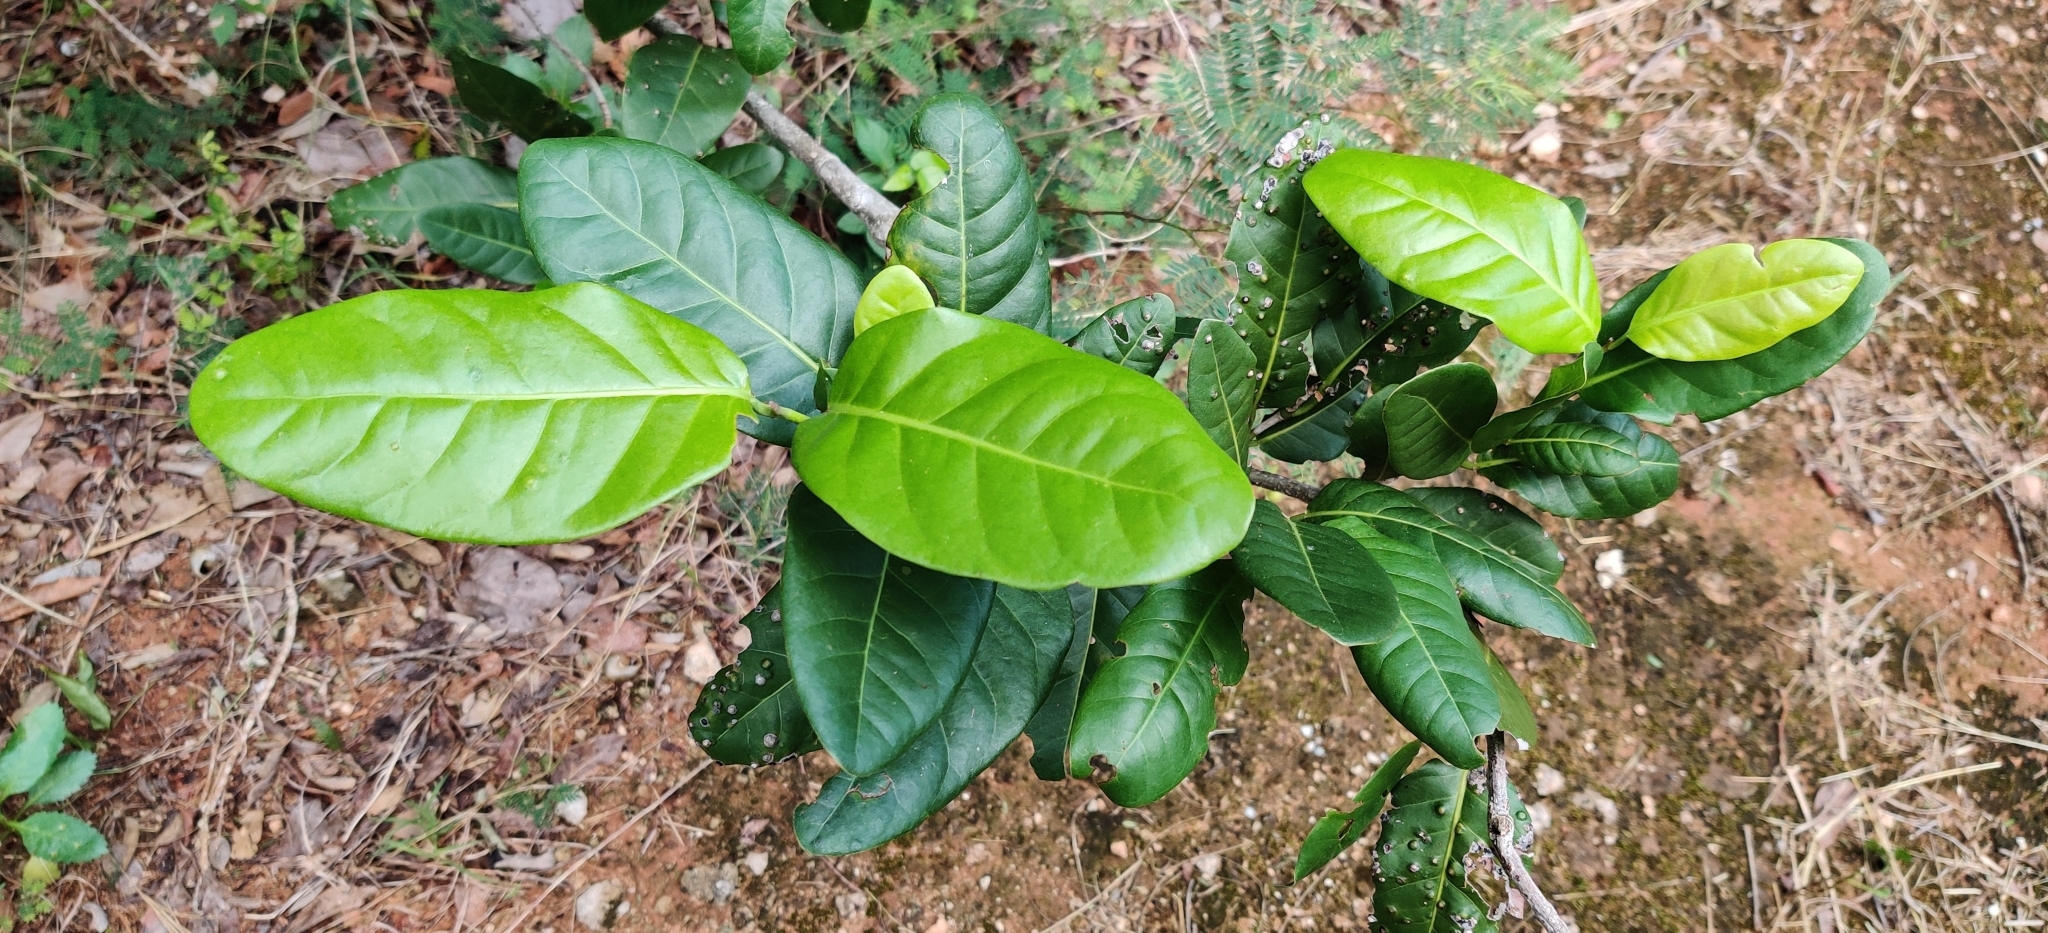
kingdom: Plantae
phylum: Tracheophyta
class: Magnoliopsida
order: Caryophyllales
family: Polygonaceae
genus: Coccoloba
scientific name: Coccoloba diversifolia
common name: Pigeon-plum
